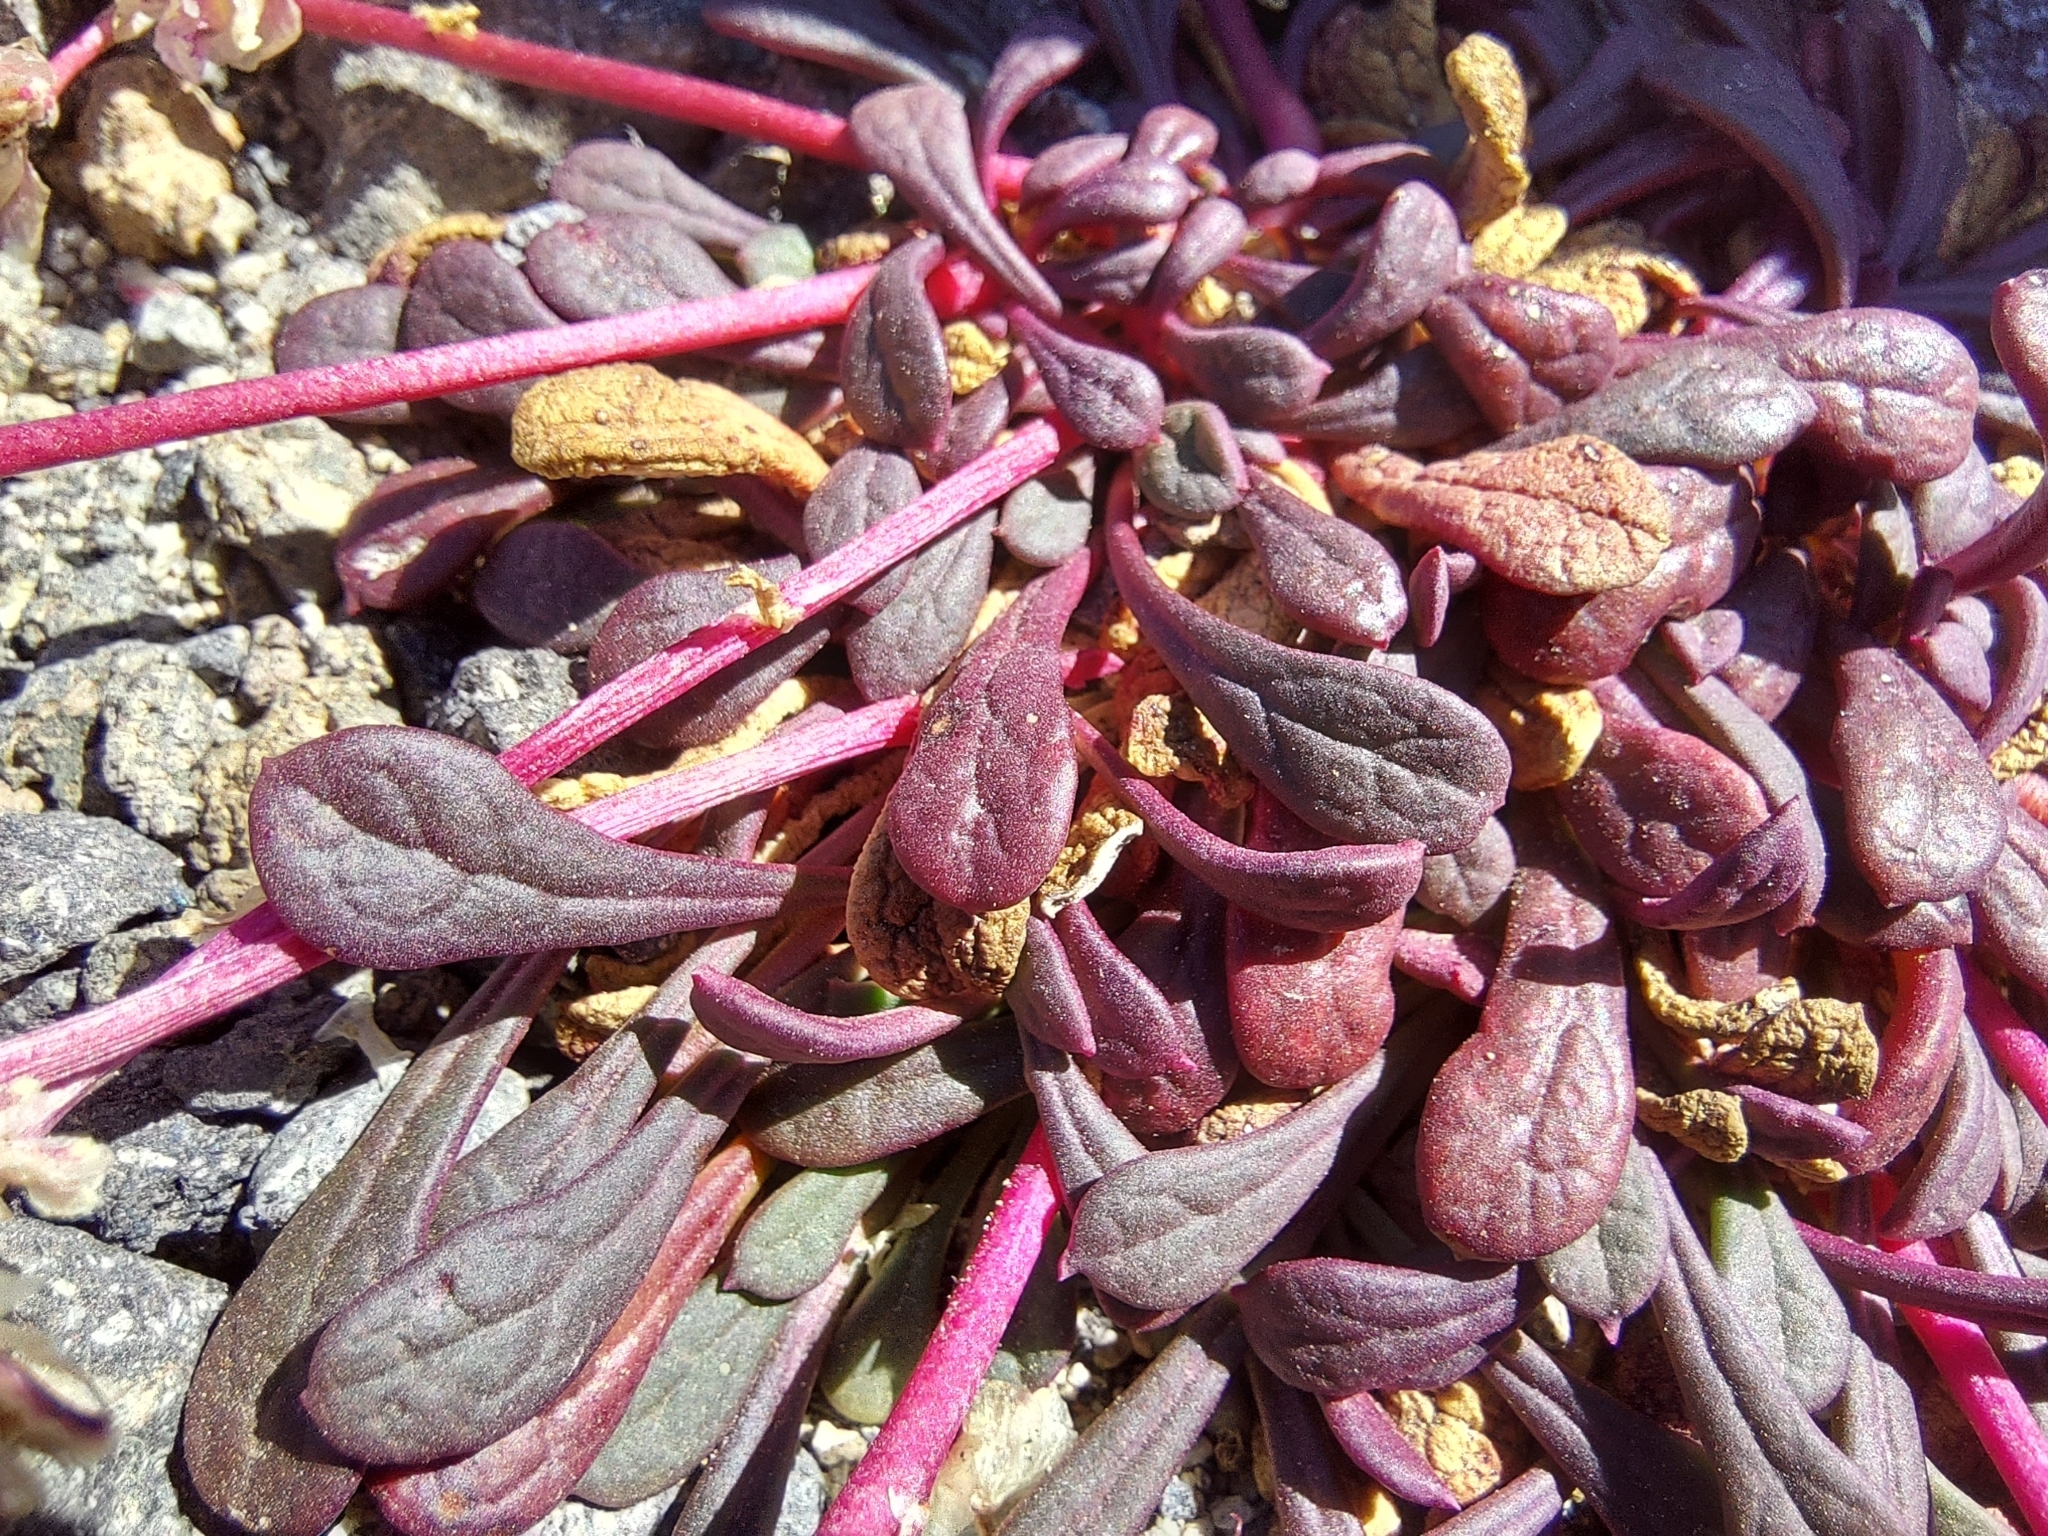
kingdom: Plantae
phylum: Tracheophyta
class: Magnoliopsida
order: Caryophyllales
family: Montiaceae
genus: Calyptridium
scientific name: Calyptridium umbellatum
